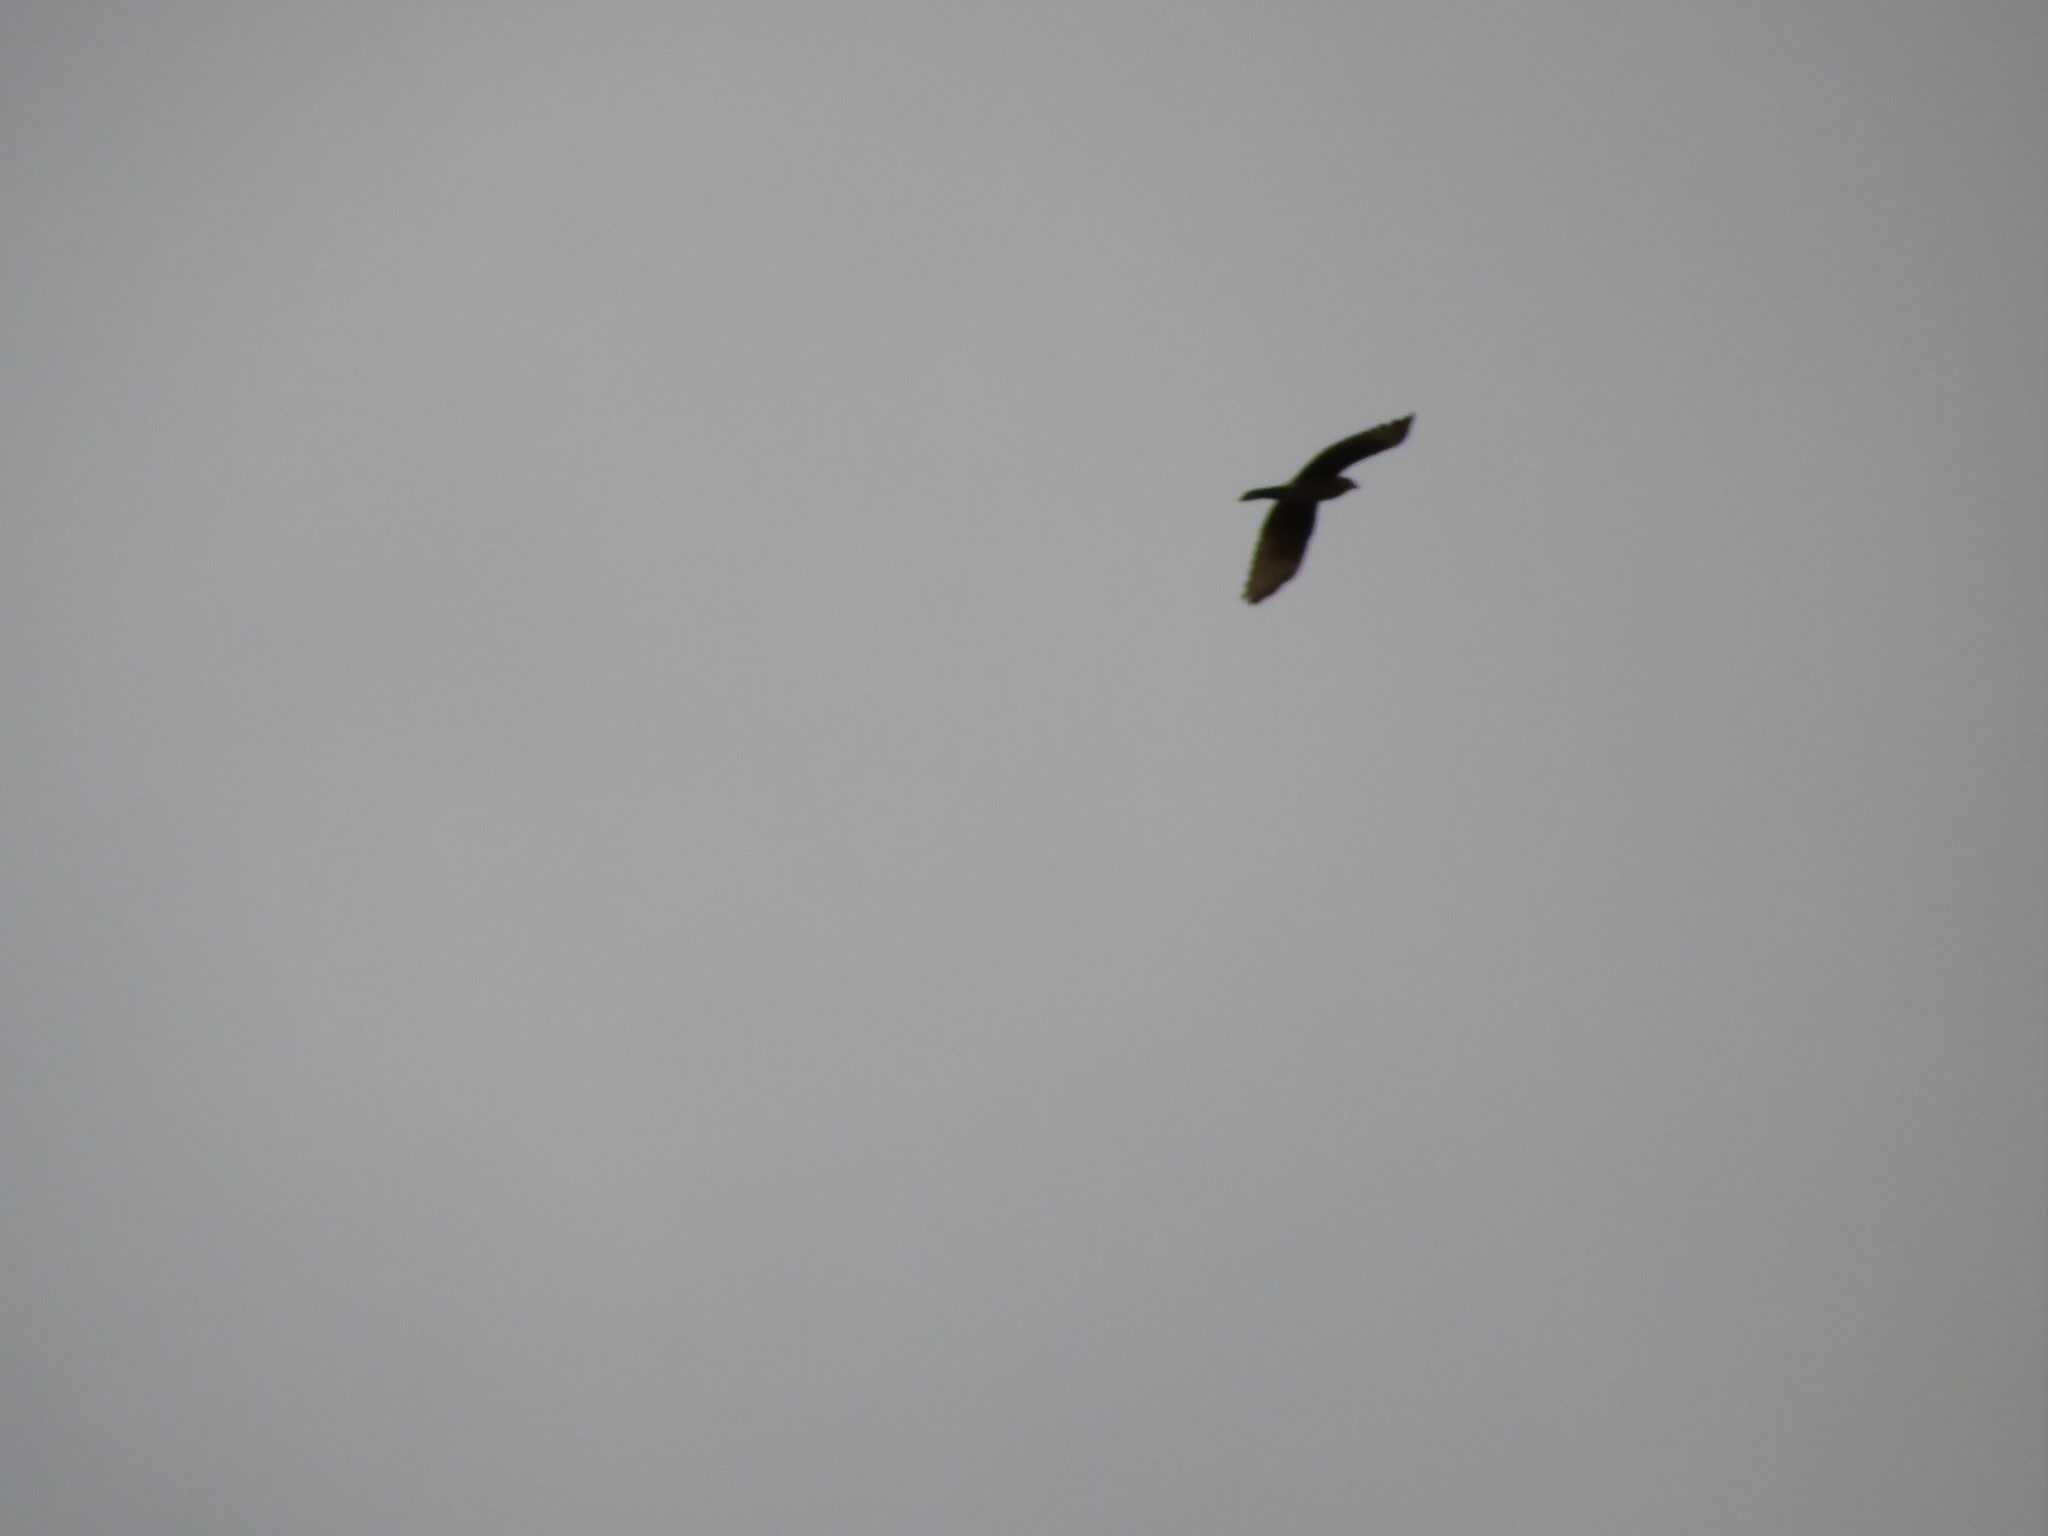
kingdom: Animalia
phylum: Chordata
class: Aves
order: Falconiformes
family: Falconidae
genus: Daptrius
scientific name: Daptrius
